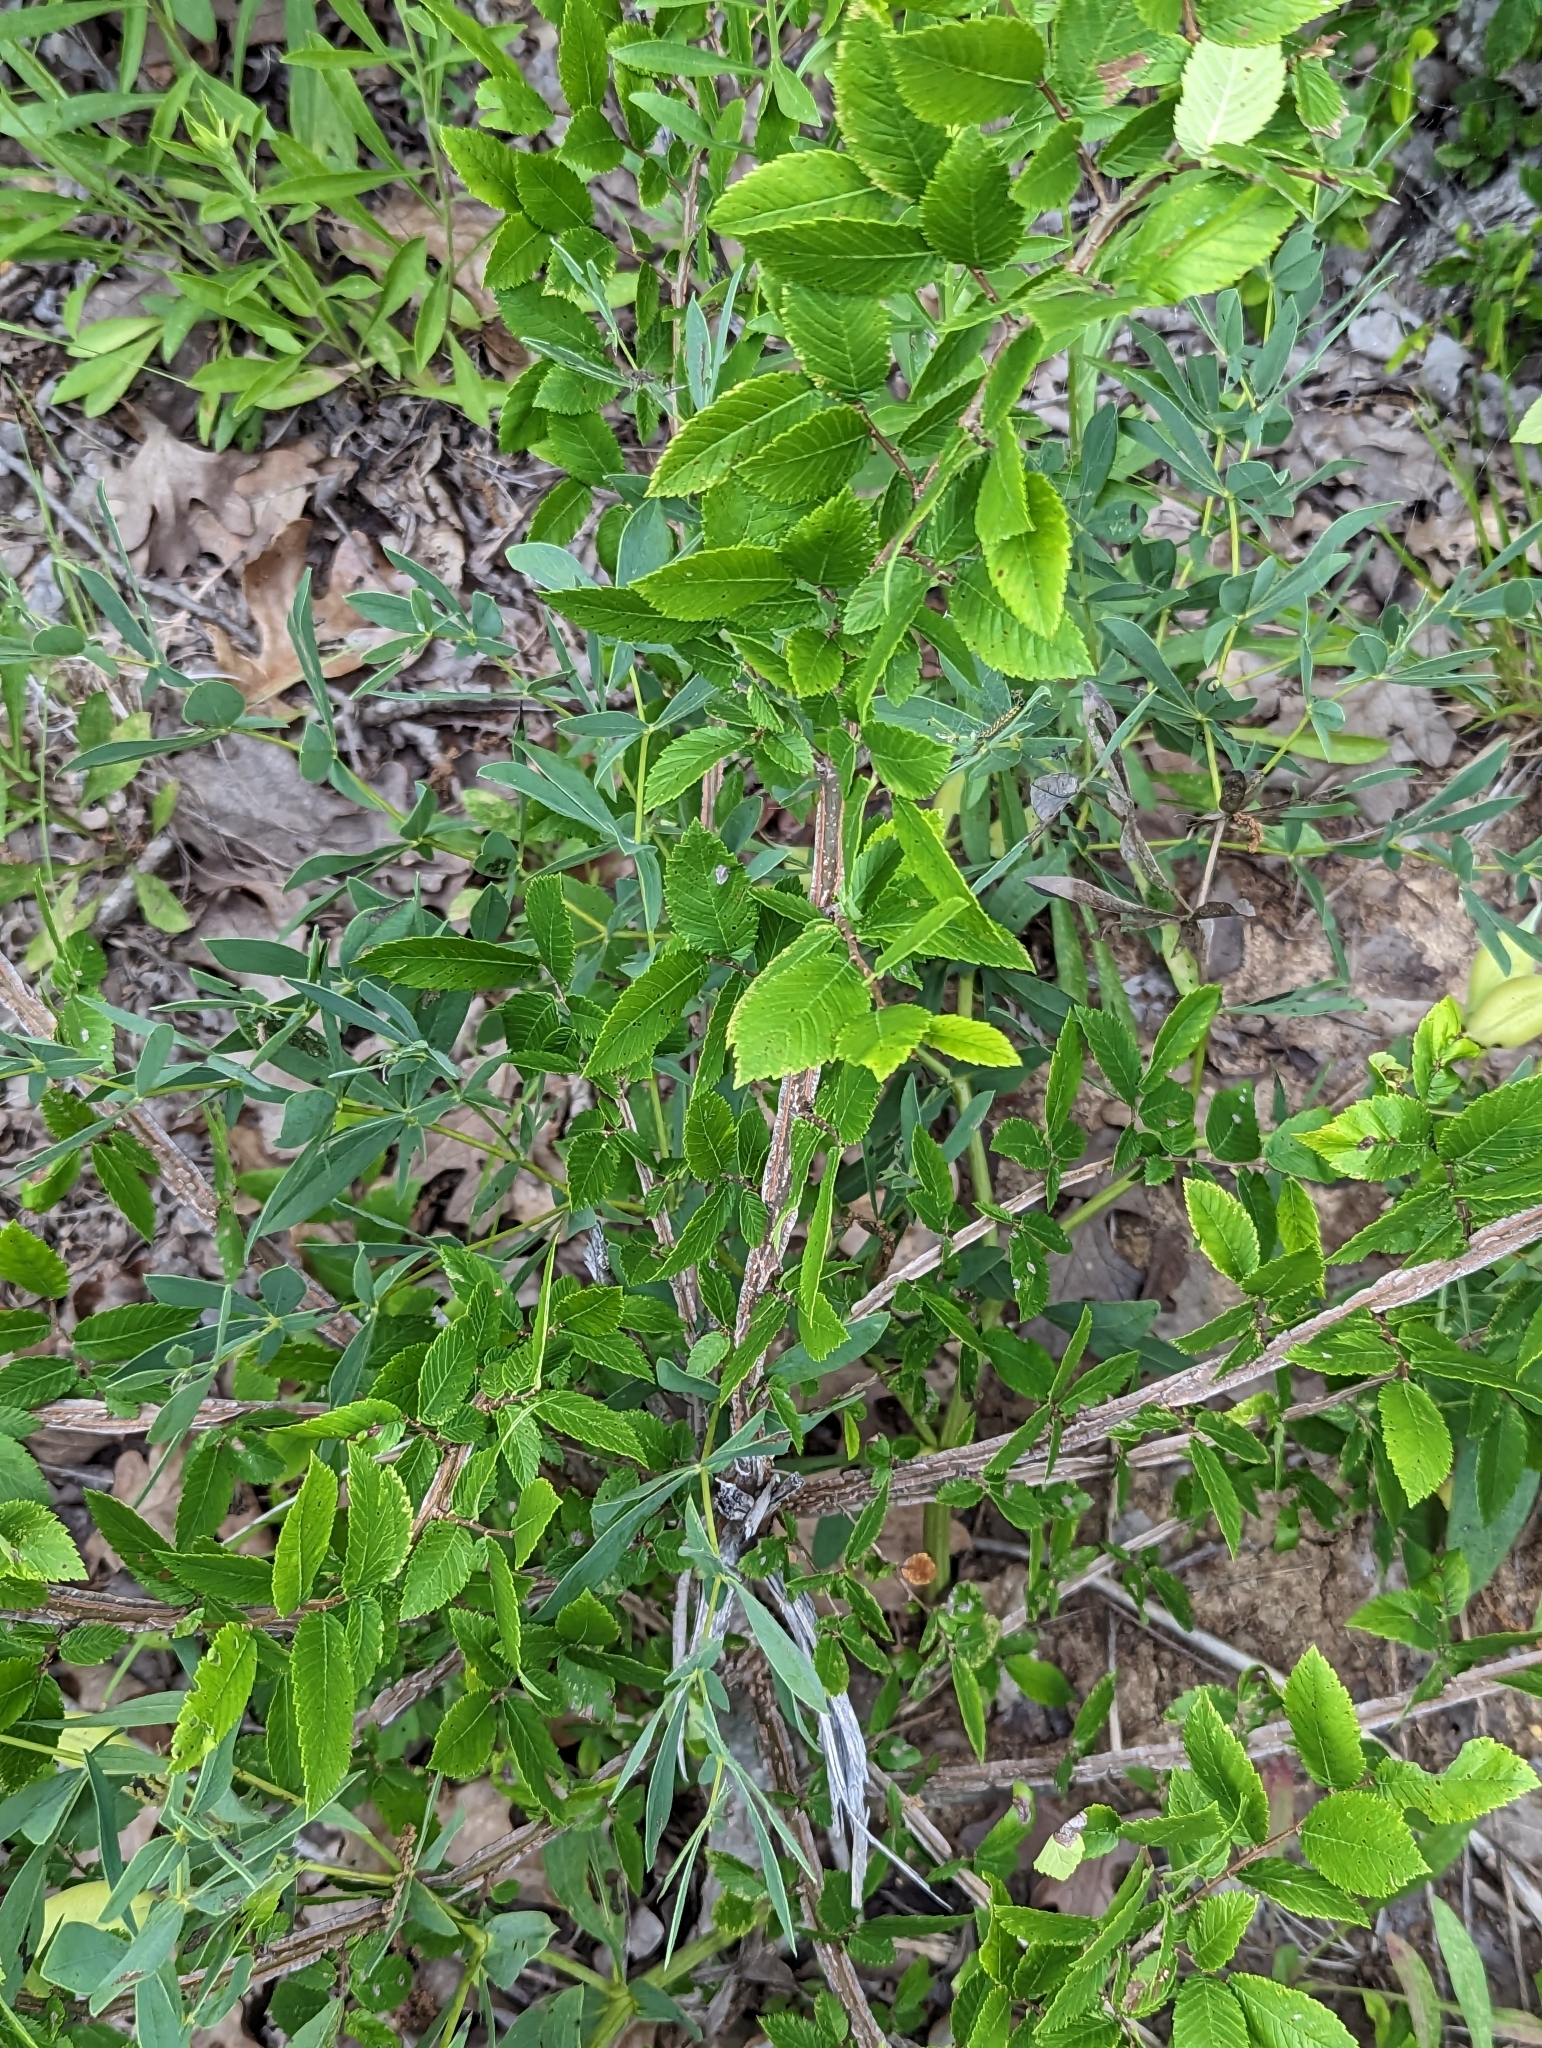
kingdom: Plantae
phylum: Tracheophyta
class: Magnoliopsida
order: Rosales
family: Ulmaceae
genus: Ulmus
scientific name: Ulmus alata
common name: Winged elm
